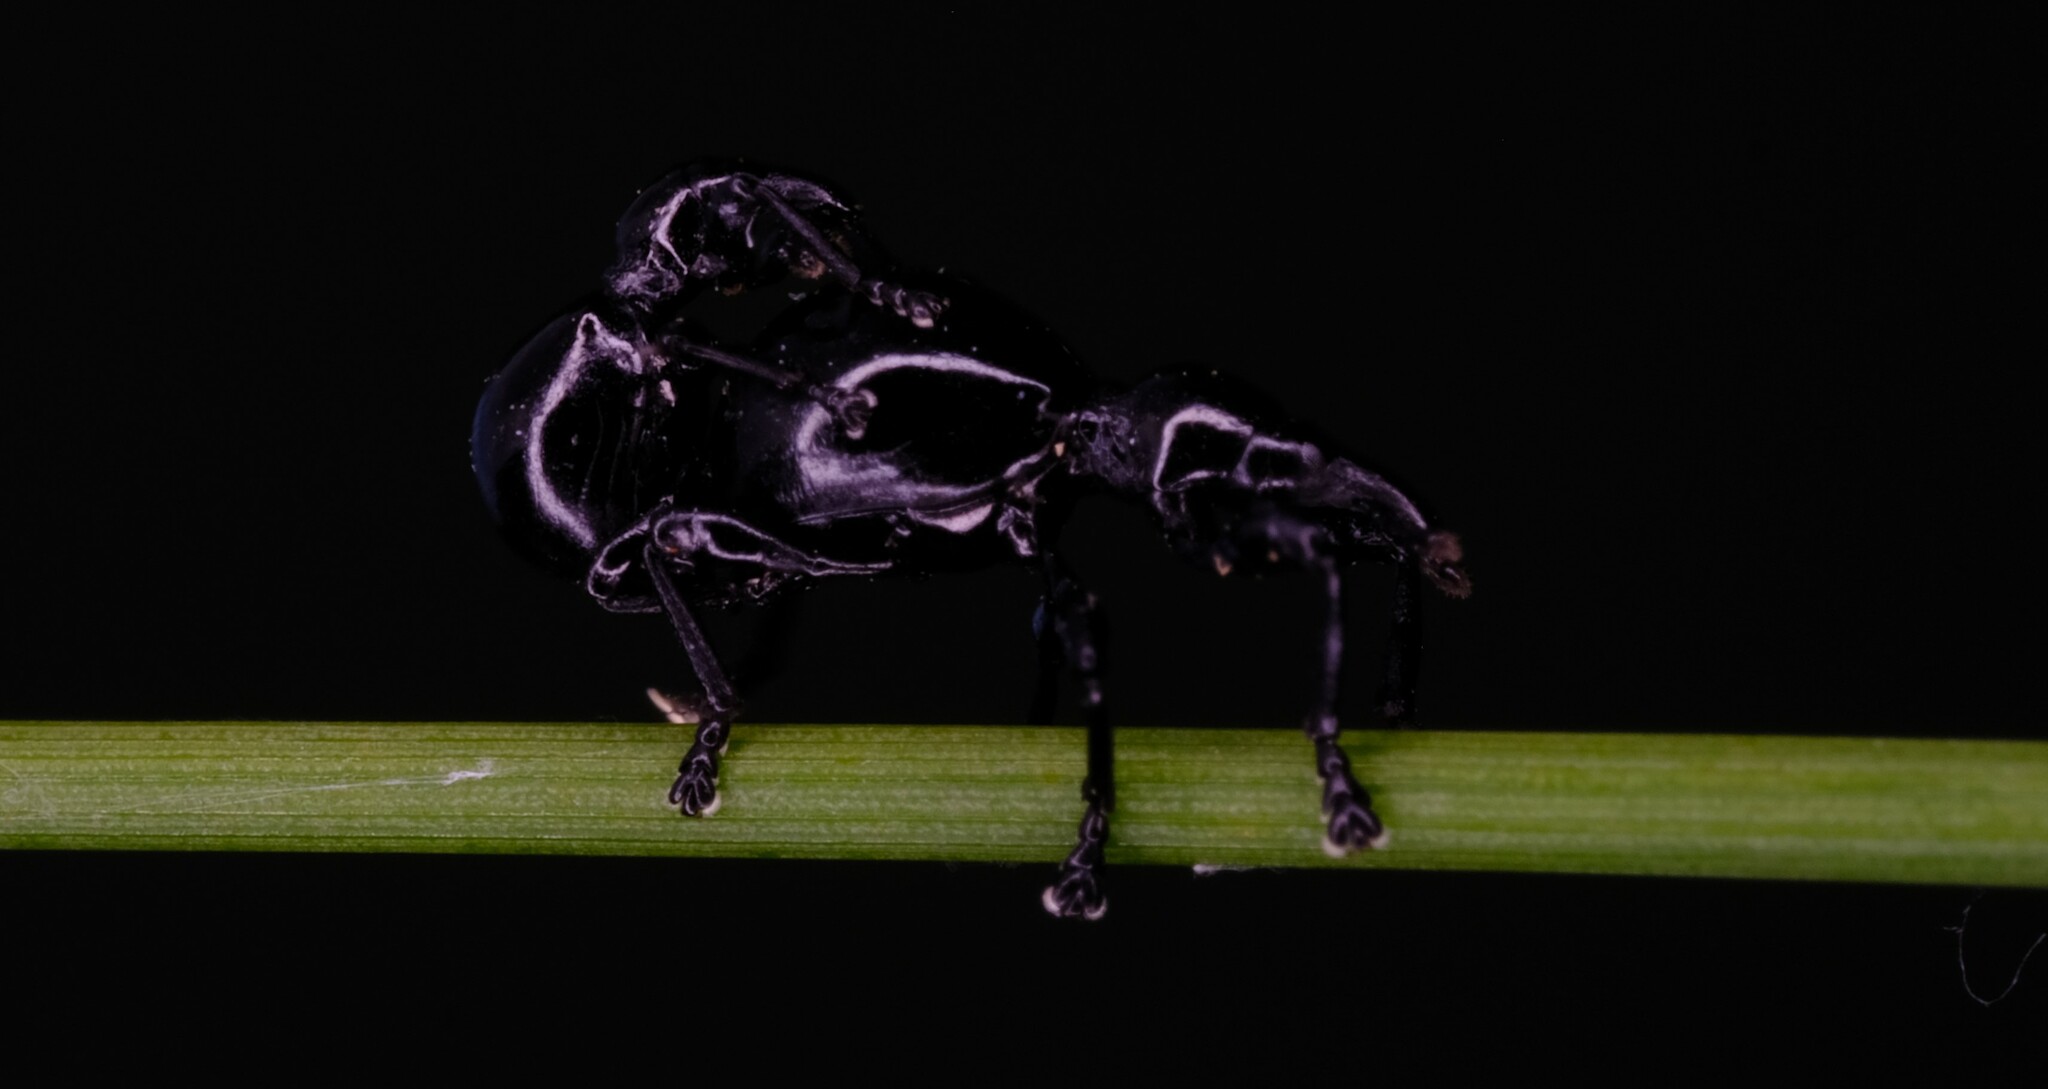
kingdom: Animalia
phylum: Arthropoda
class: Insecta
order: Coleoptera
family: Brentidae
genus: Rhynolaccus
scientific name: Rhynolaccus formicarius
